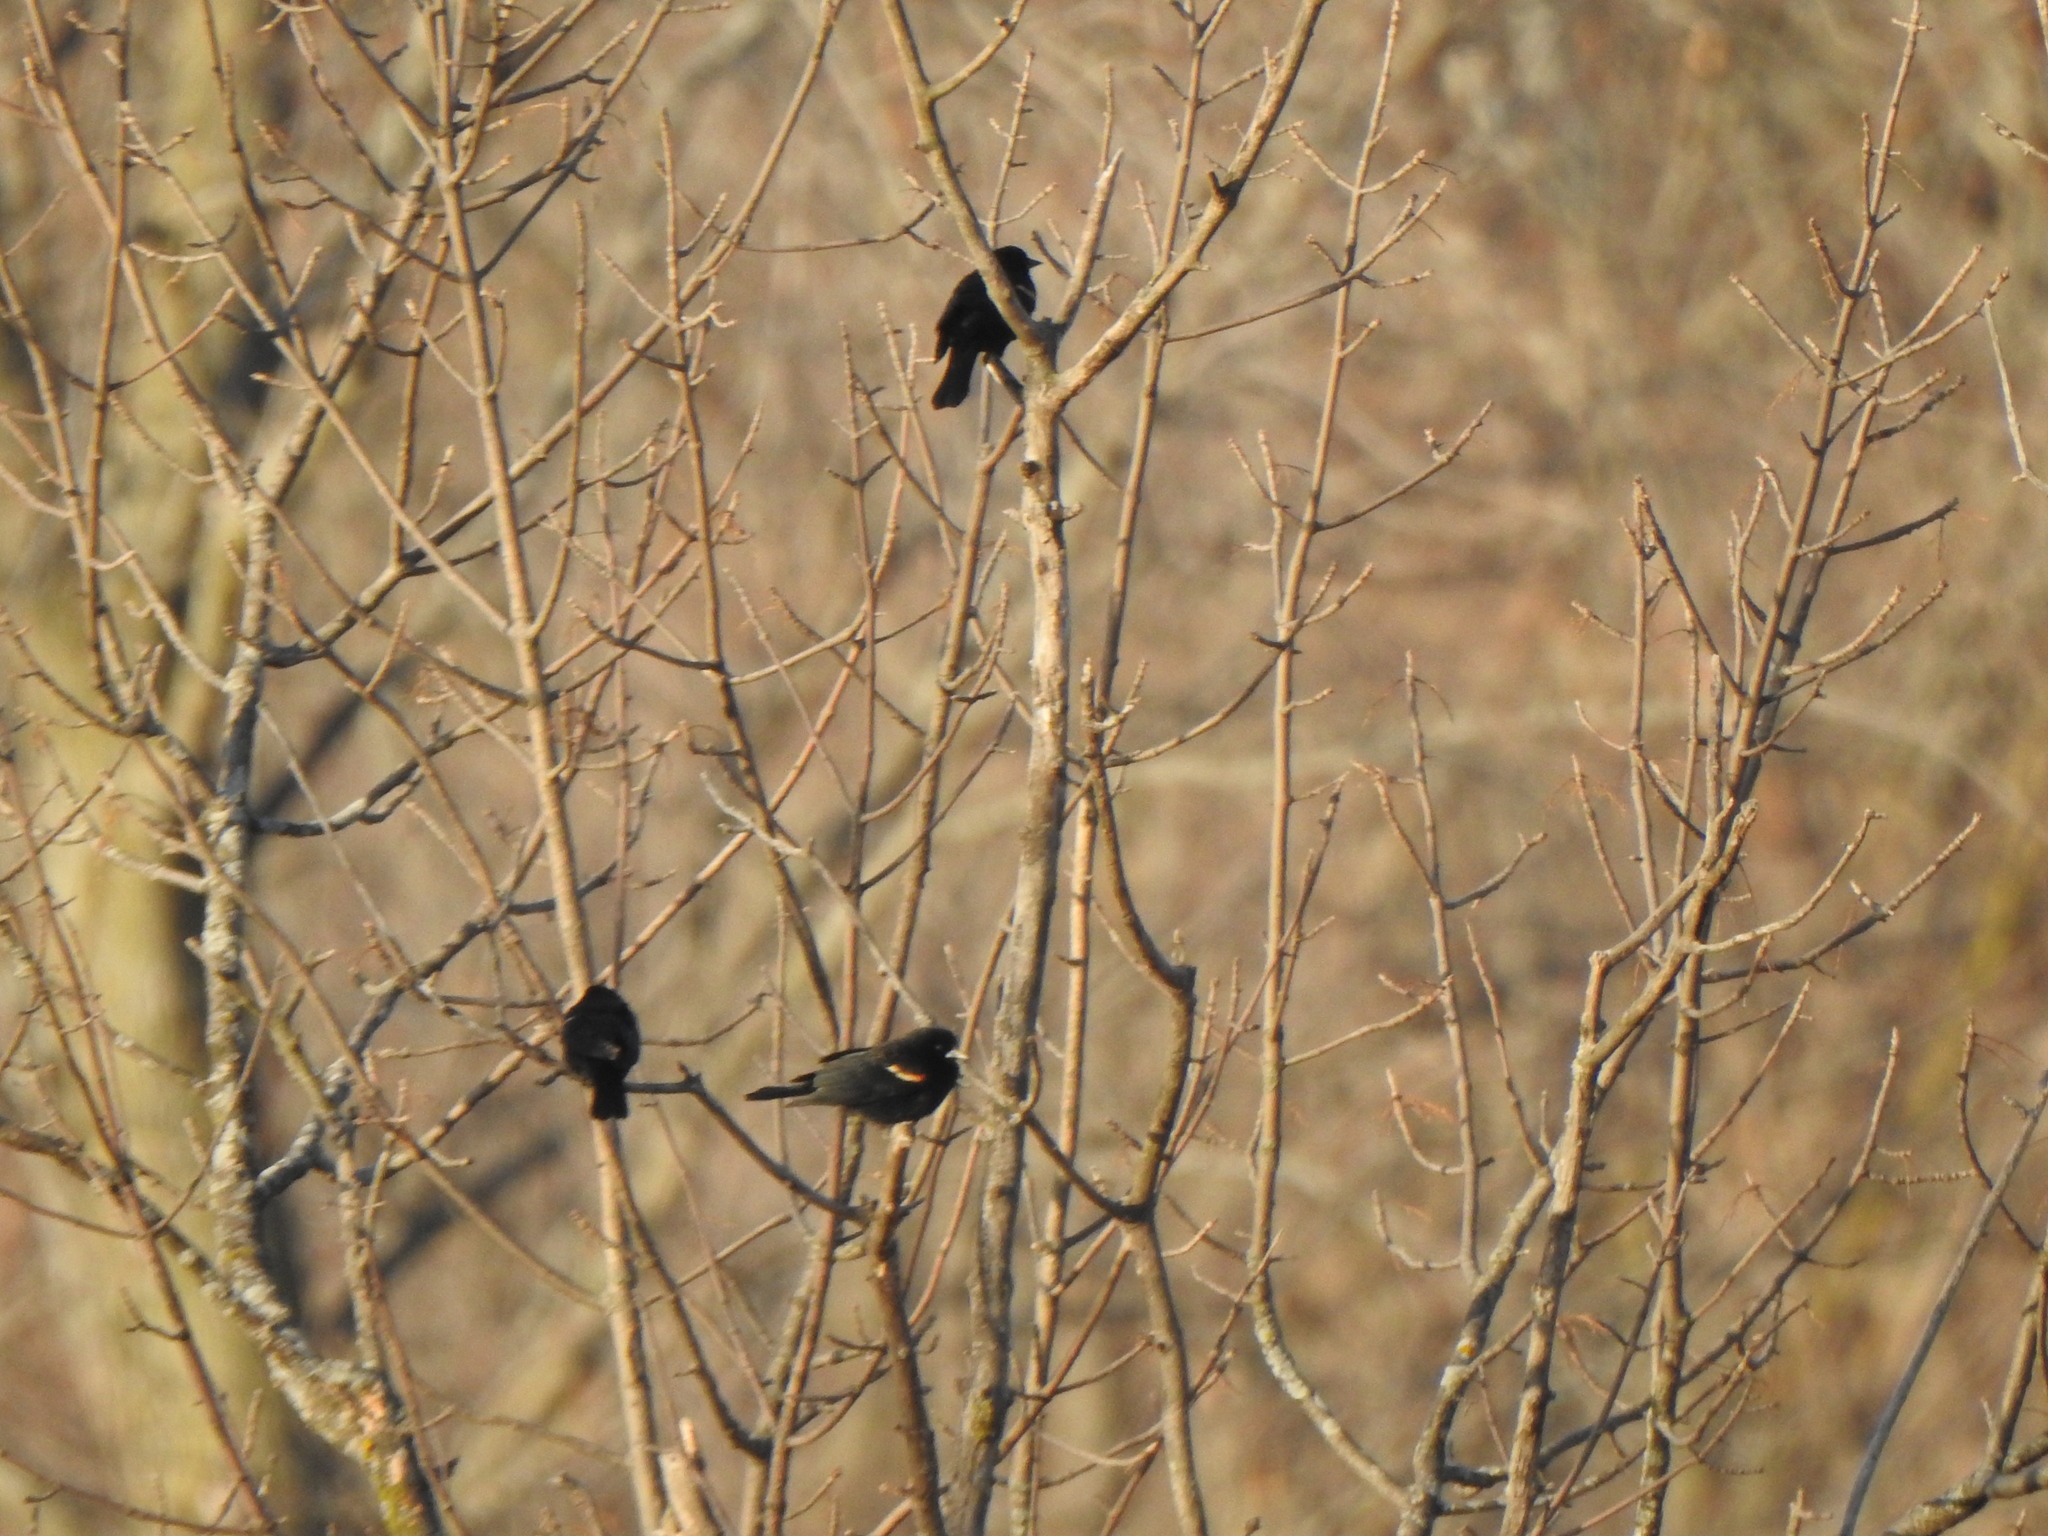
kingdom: Animalia
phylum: Chordata
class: Aves
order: Passeriformes
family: Icteridae
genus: Agelaius
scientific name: Agelaius phoeniceus
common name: Red-winged blackbird
